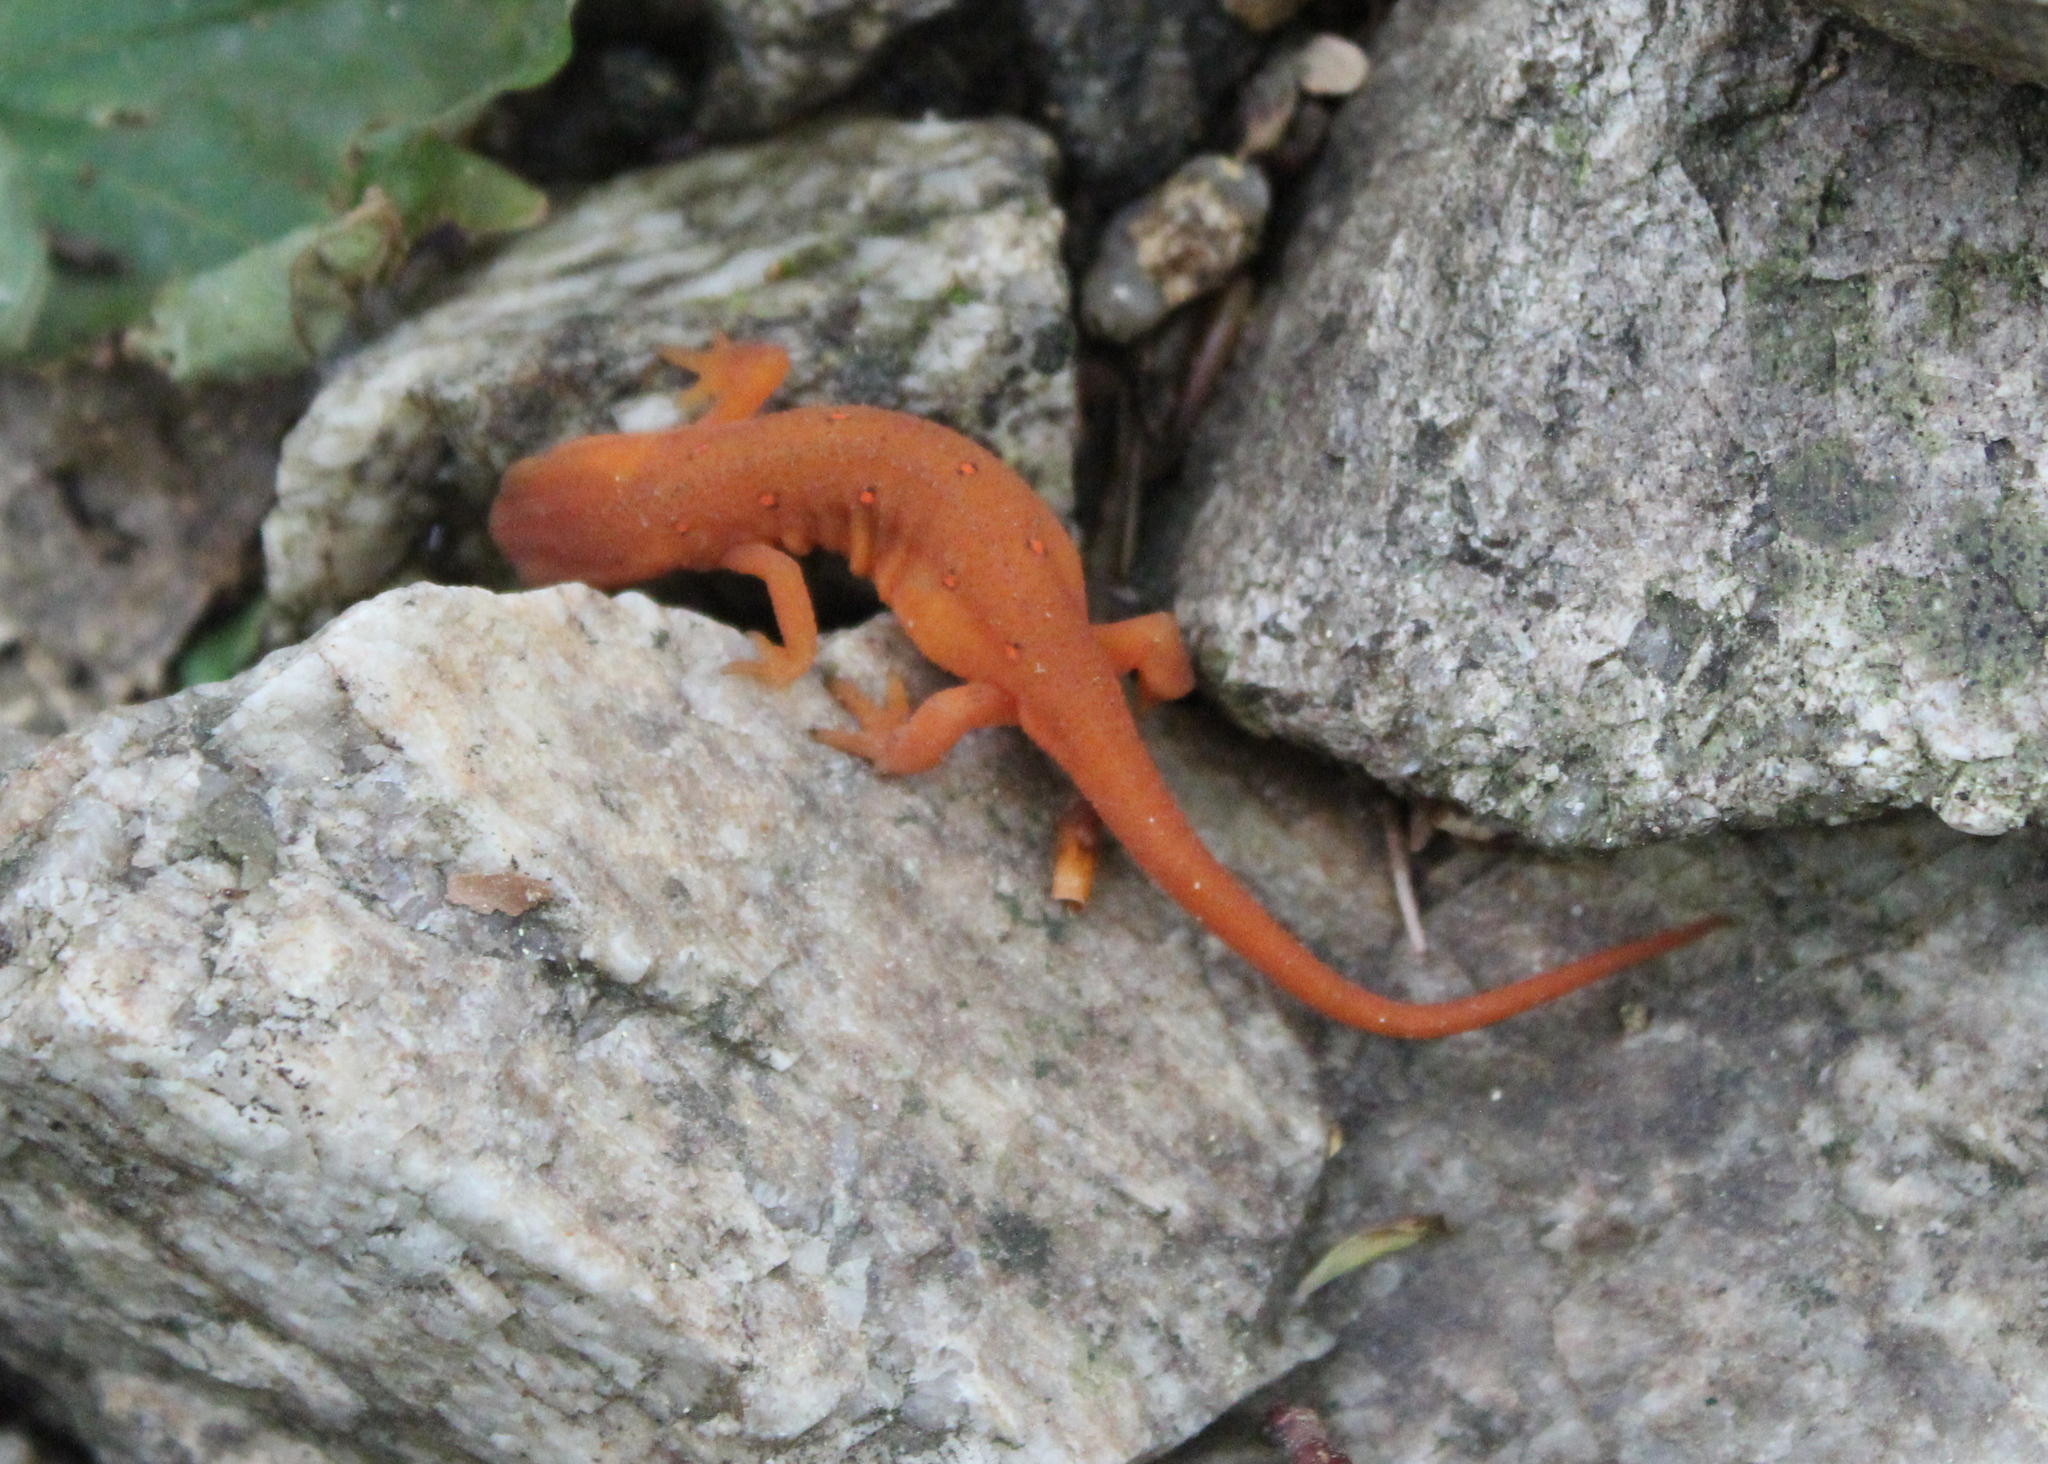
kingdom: Animalia
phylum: Chordata
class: Amphibia
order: Caudata
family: Salamandridae
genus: Notophthalmus
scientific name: Notophthalmus viridescens
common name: Eastern newt
